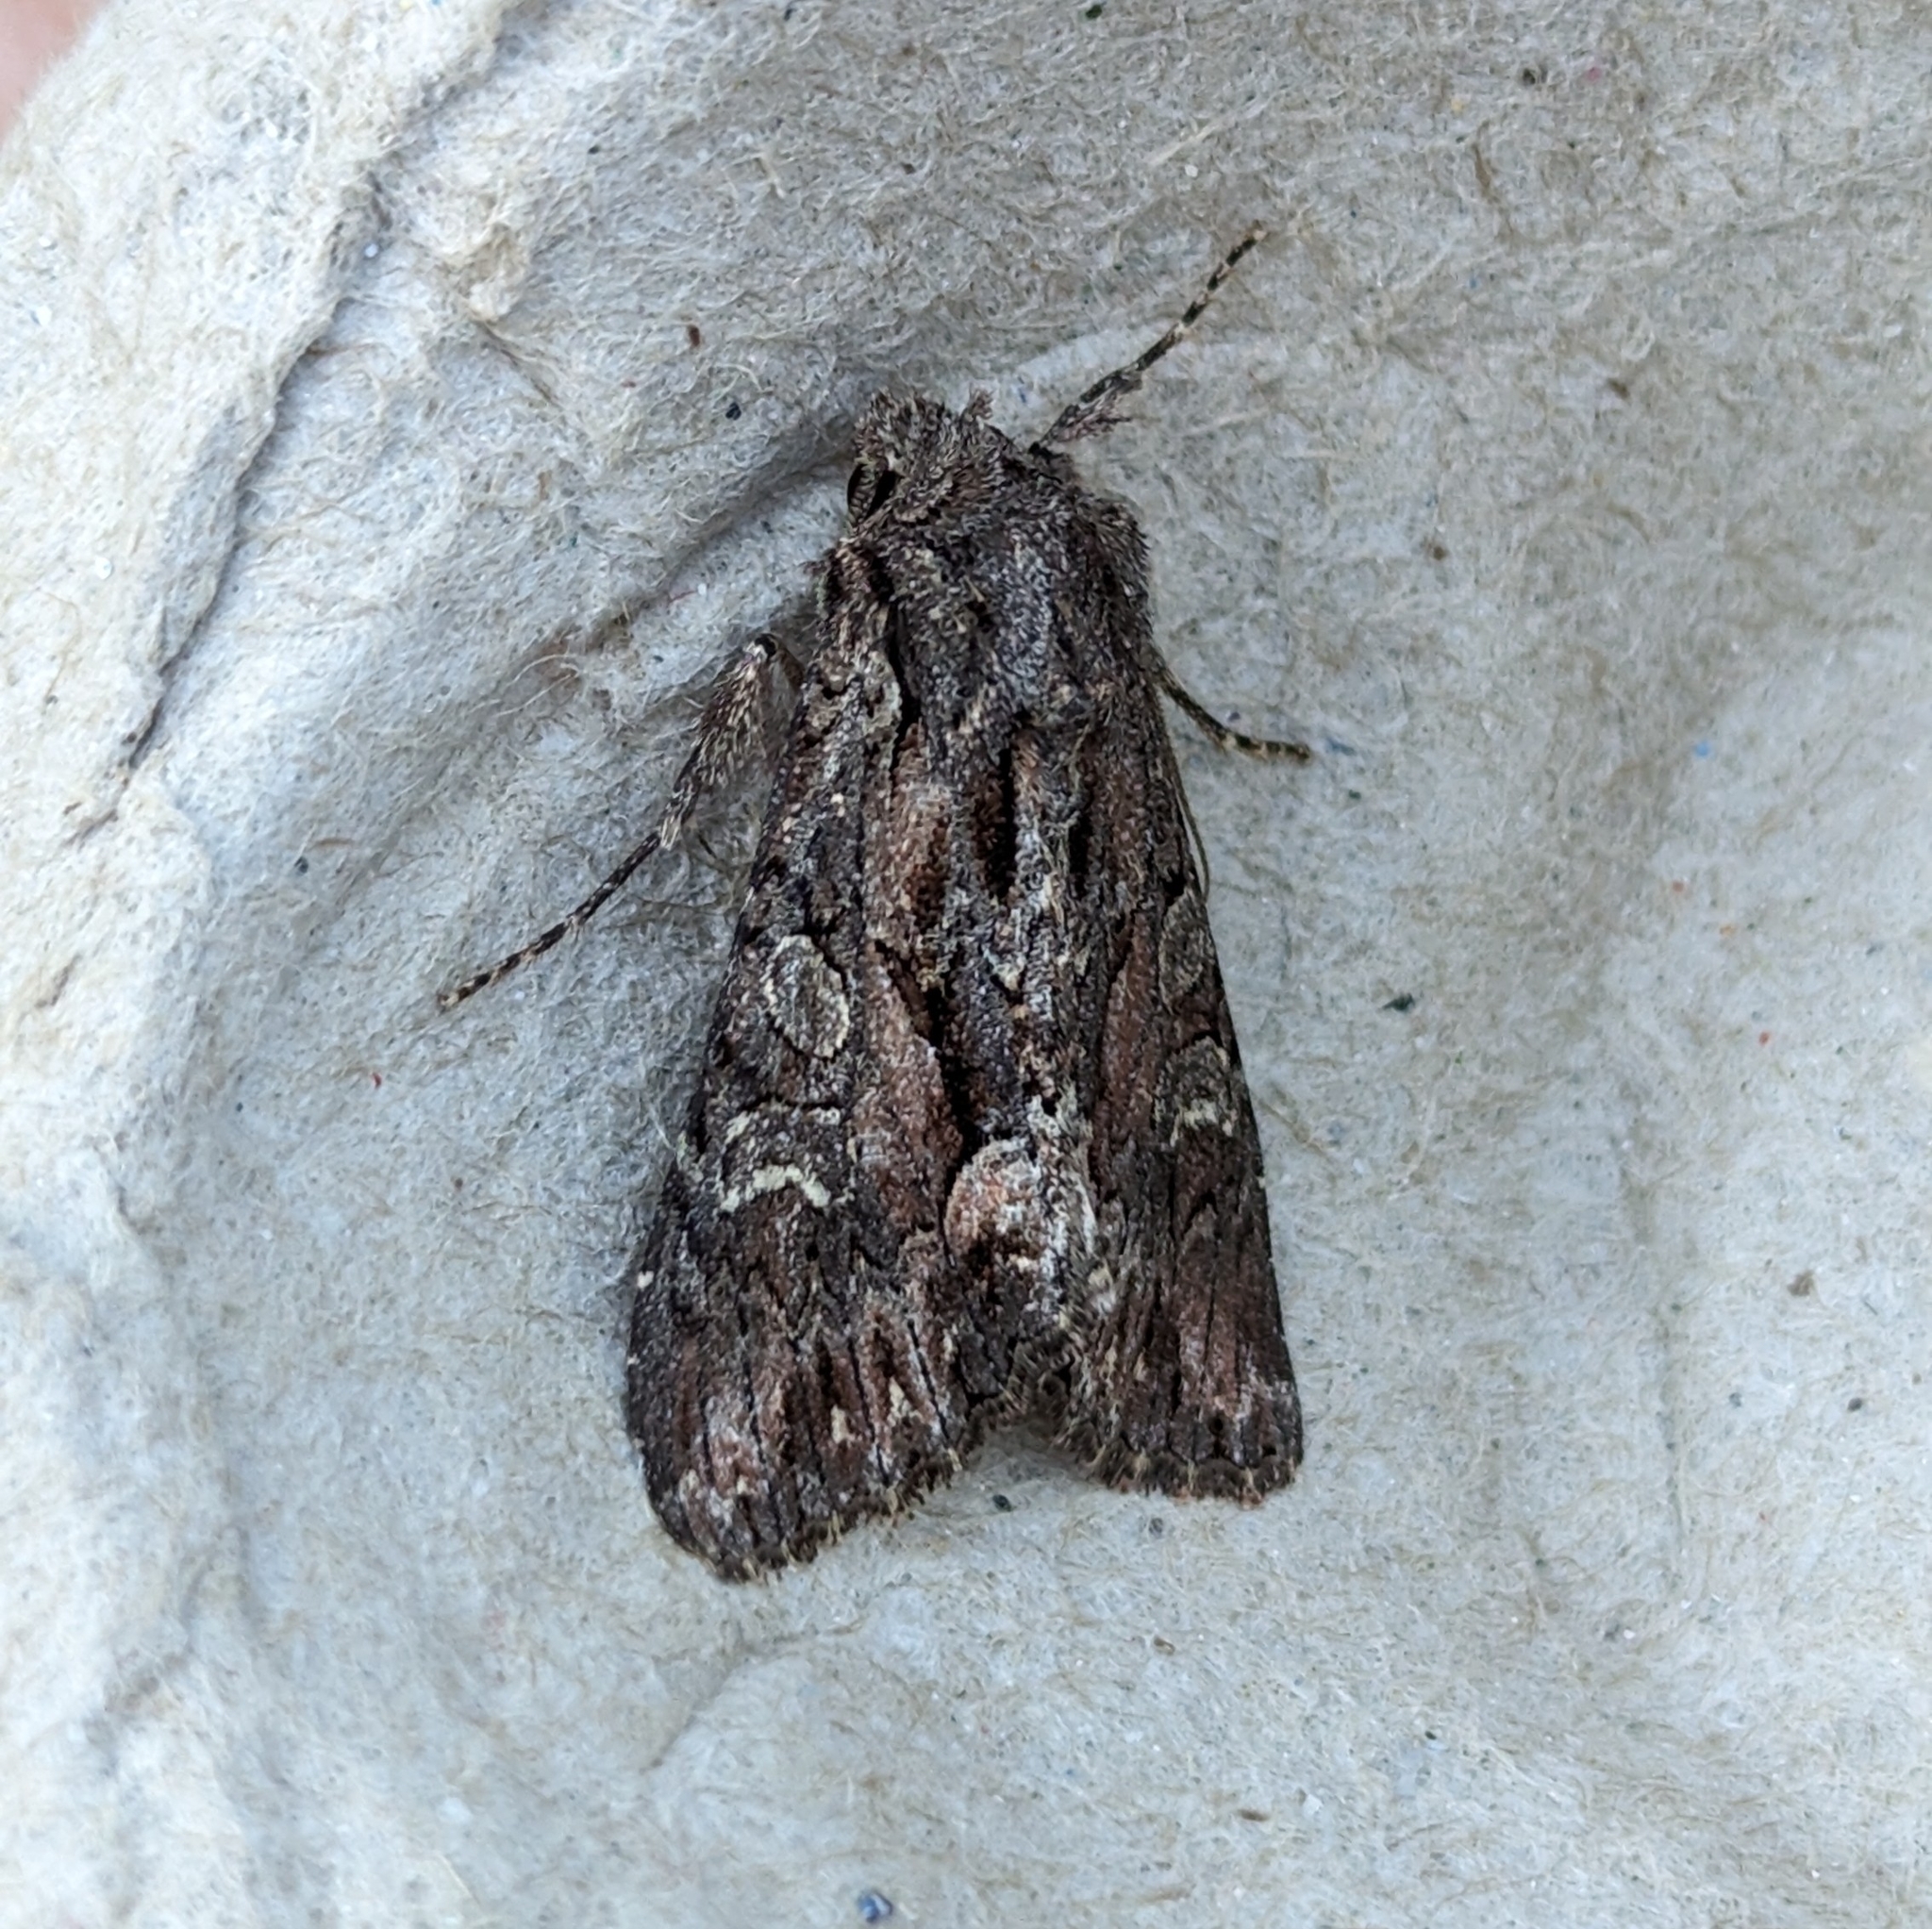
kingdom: Animalia
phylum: Arthropoda
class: Insecta
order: Lepidoptera
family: Noctuidae
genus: Fishia
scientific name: Fishia discors
